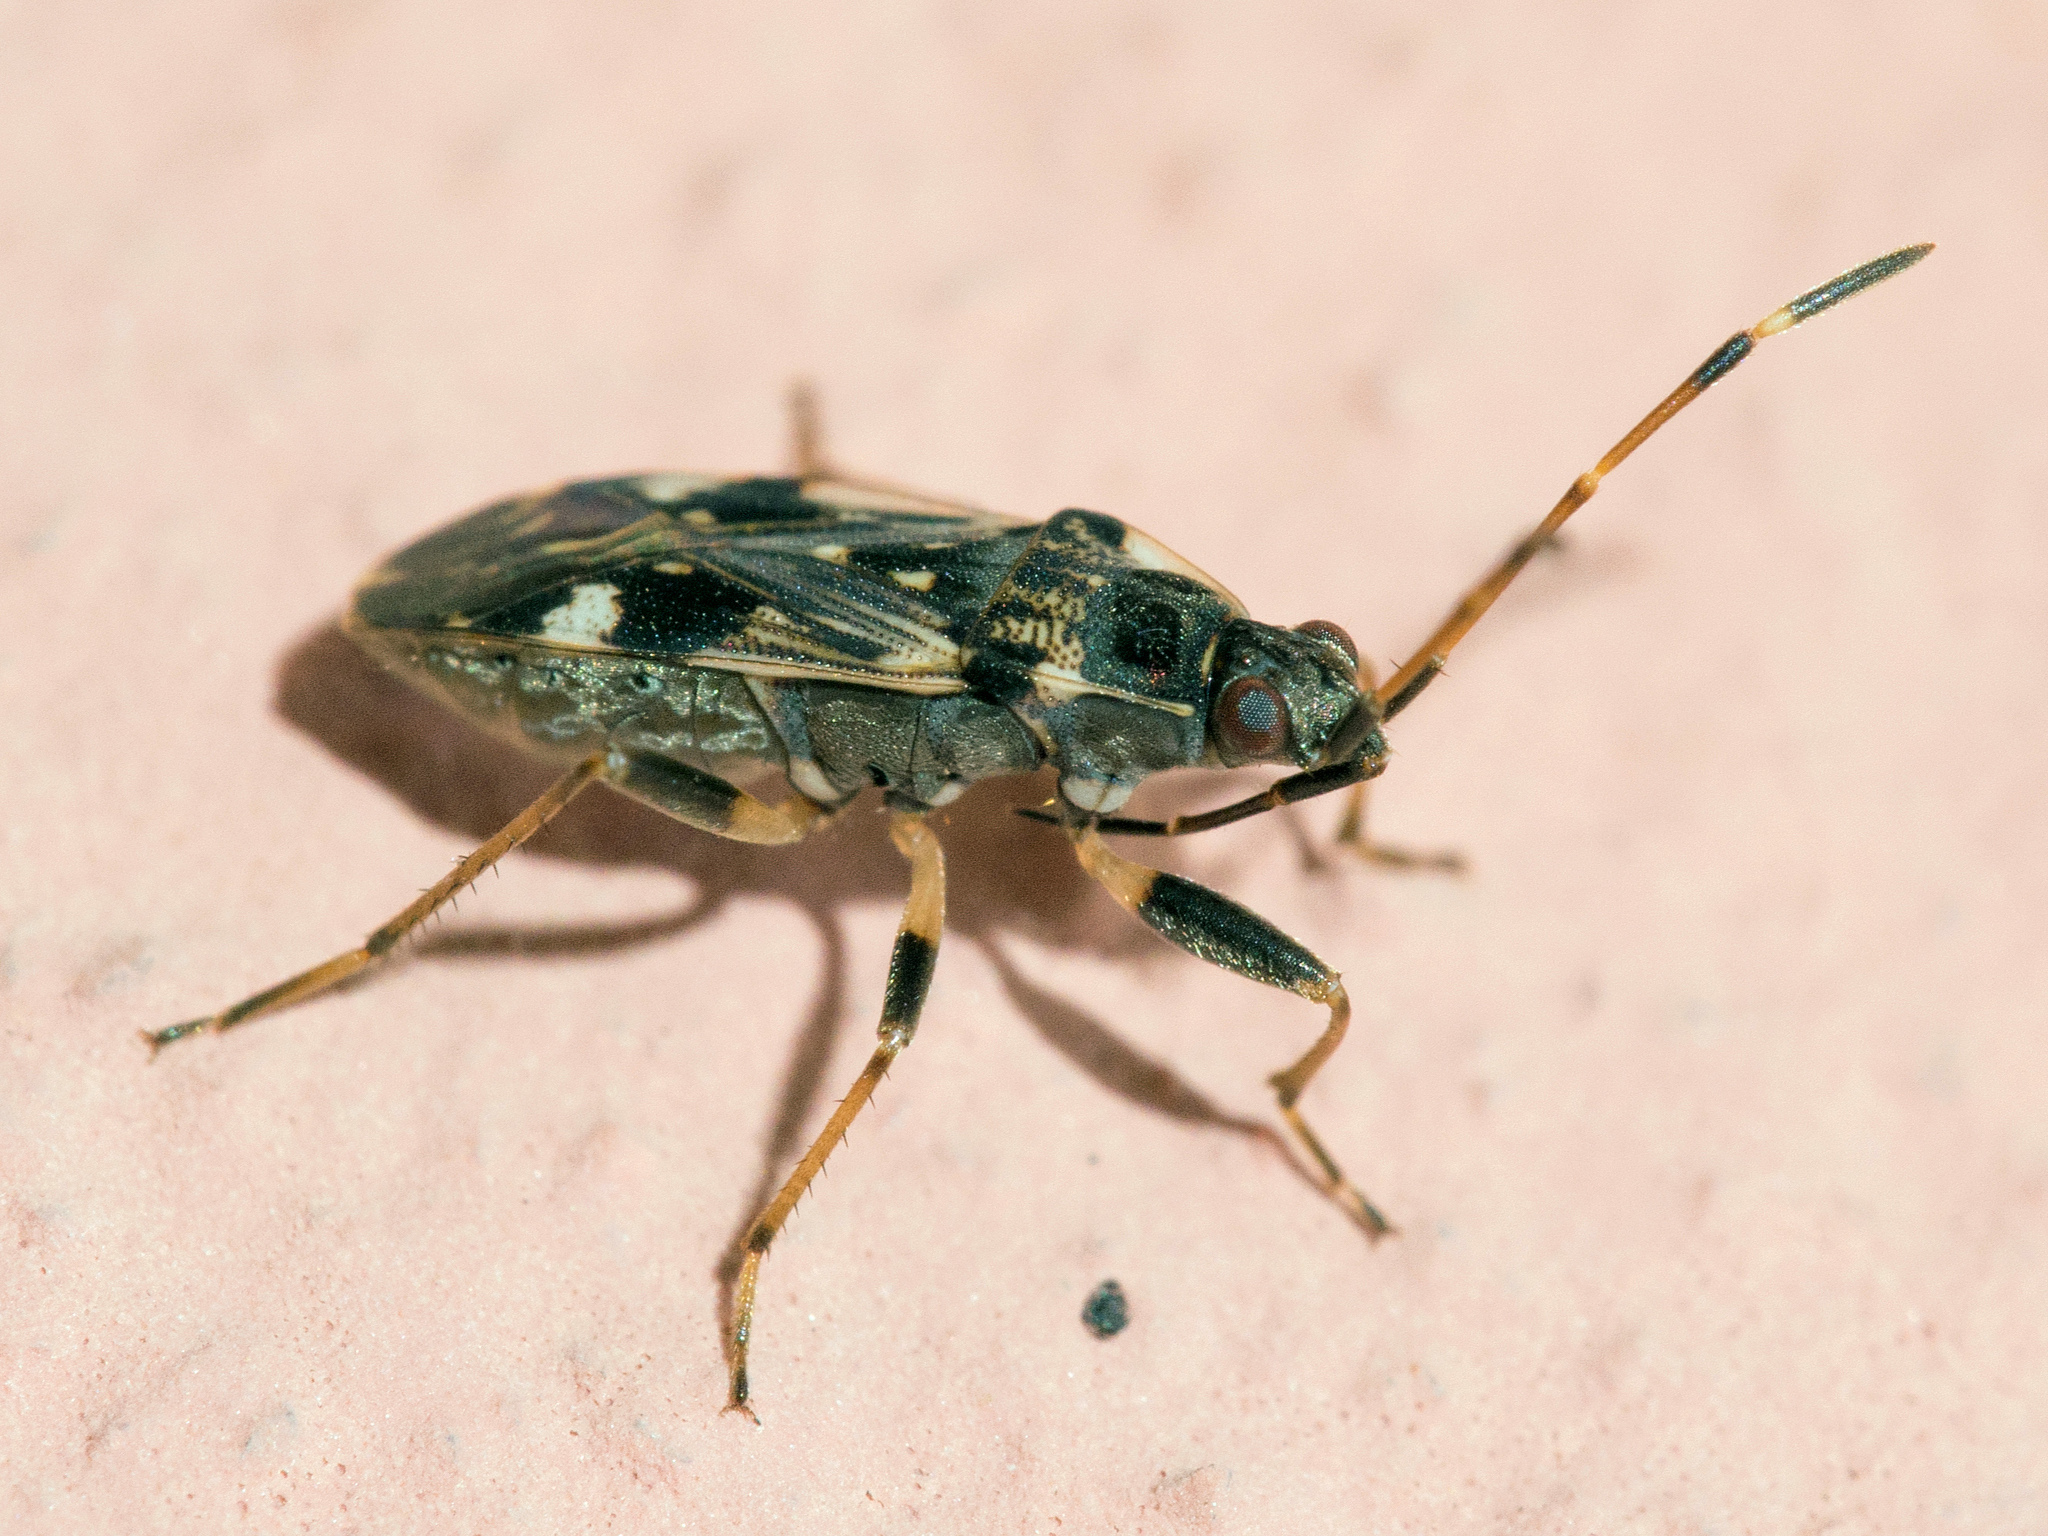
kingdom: Animalia
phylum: Arthropoda
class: Insecta
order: Hemiptera
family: Rhyparochromidae
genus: Beosus
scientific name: Beosus maritimus
